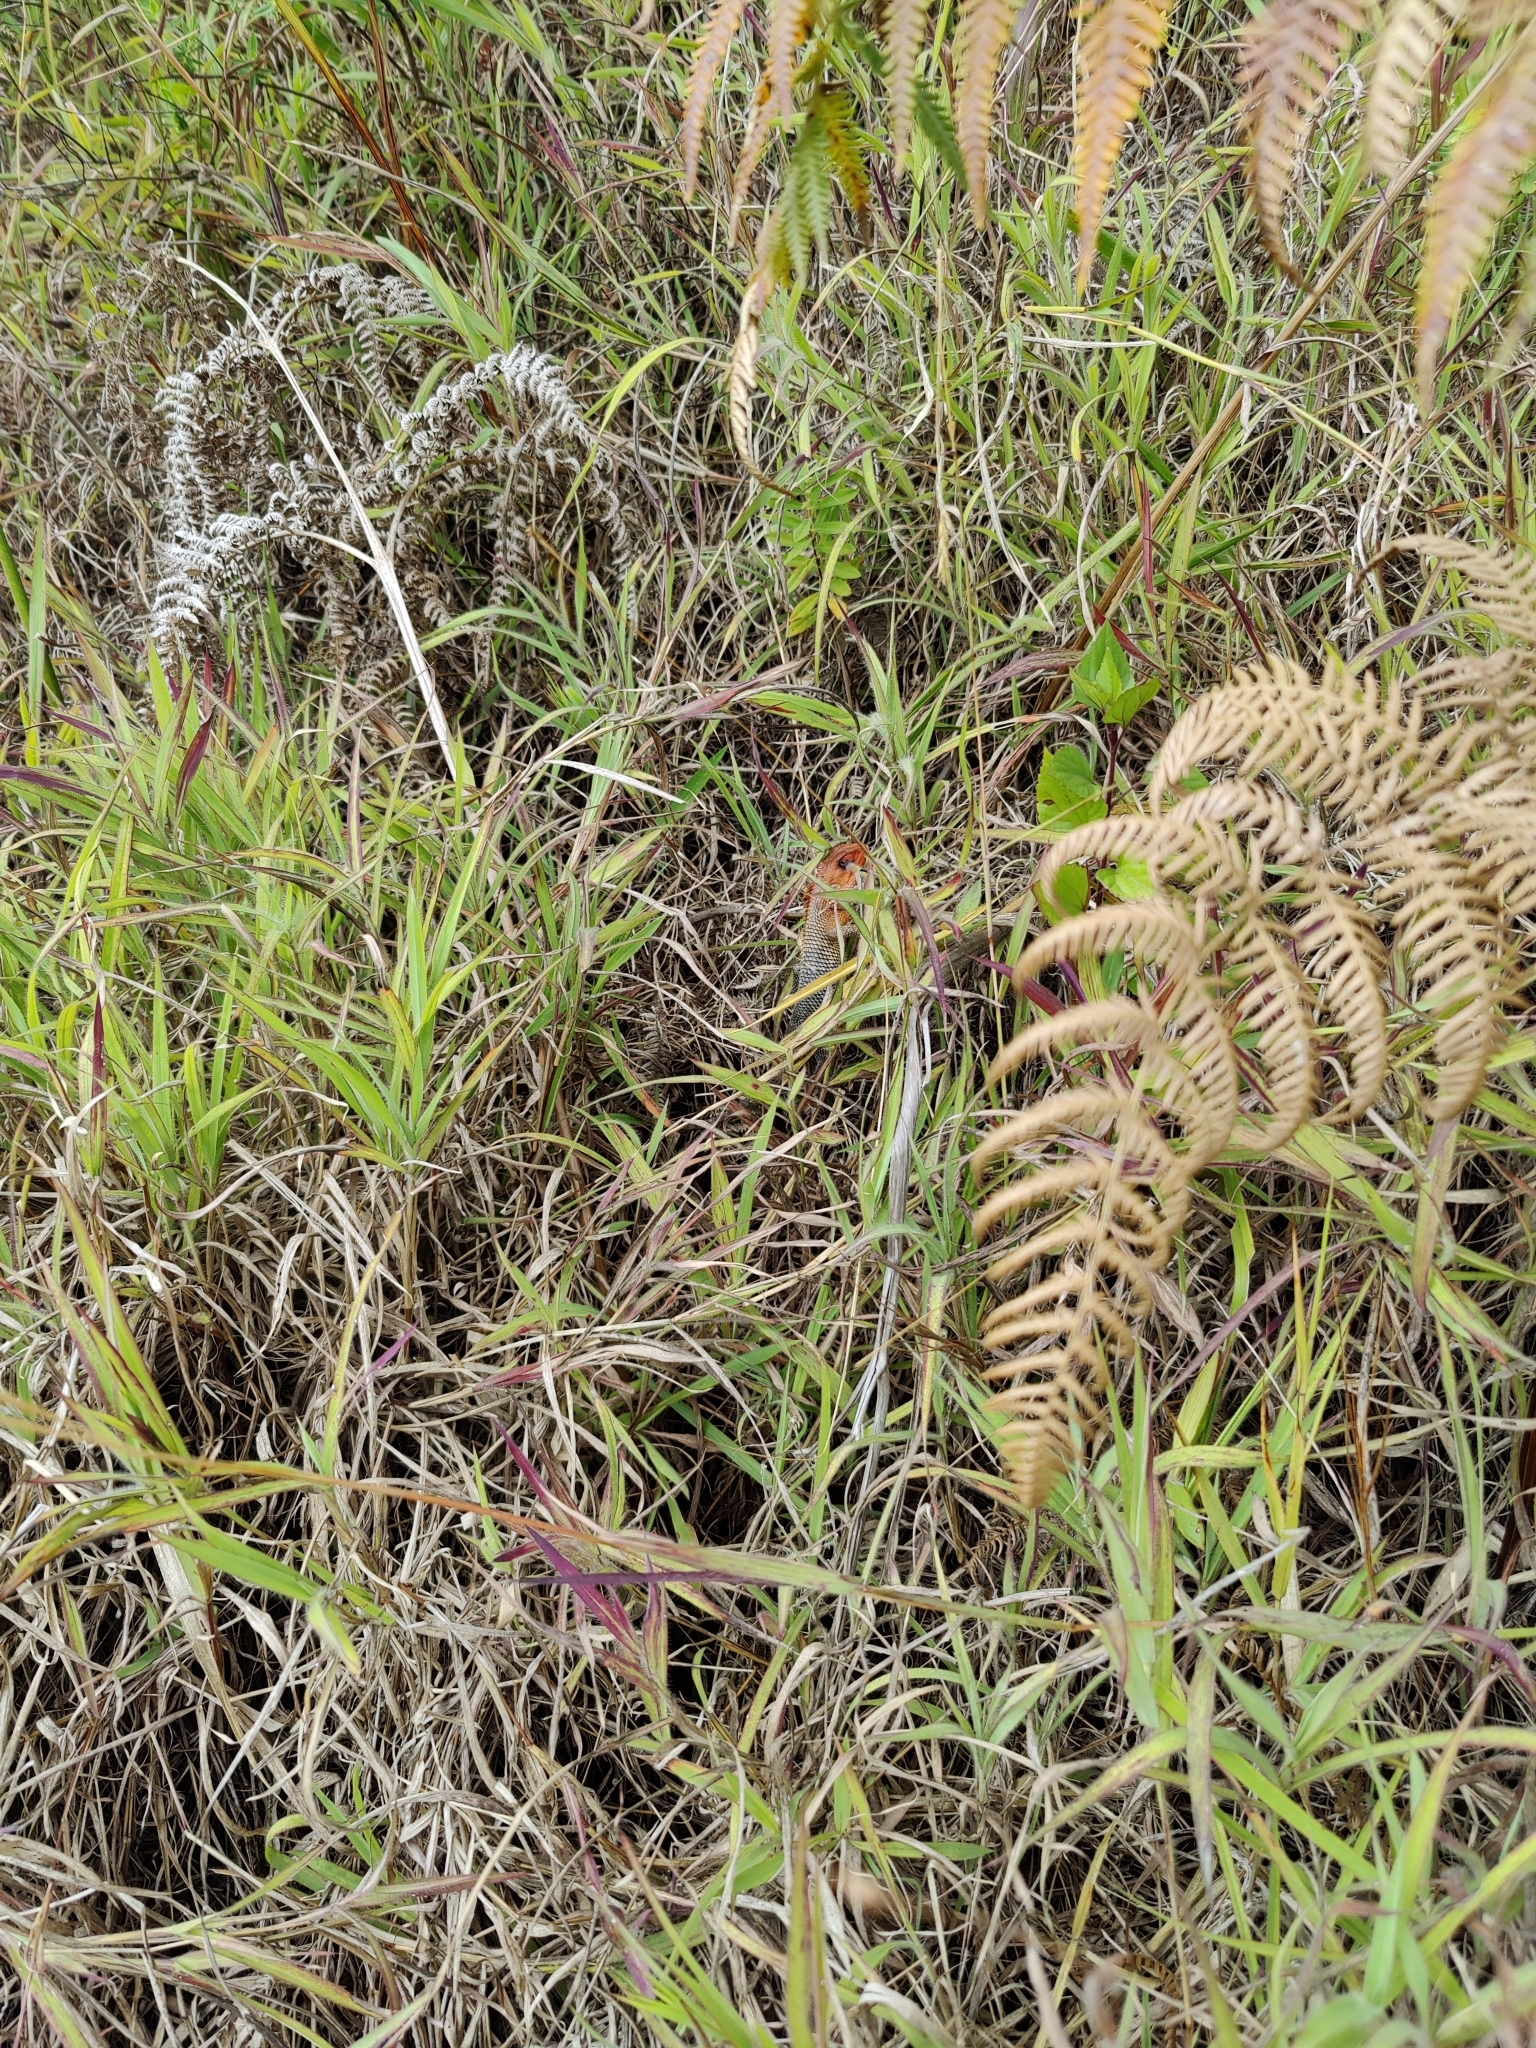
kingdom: Animalia
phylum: Chordata
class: Squamata
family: Agamidae
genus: Calotes
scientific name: Calotes versicolor
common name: Oriental garden lizard
